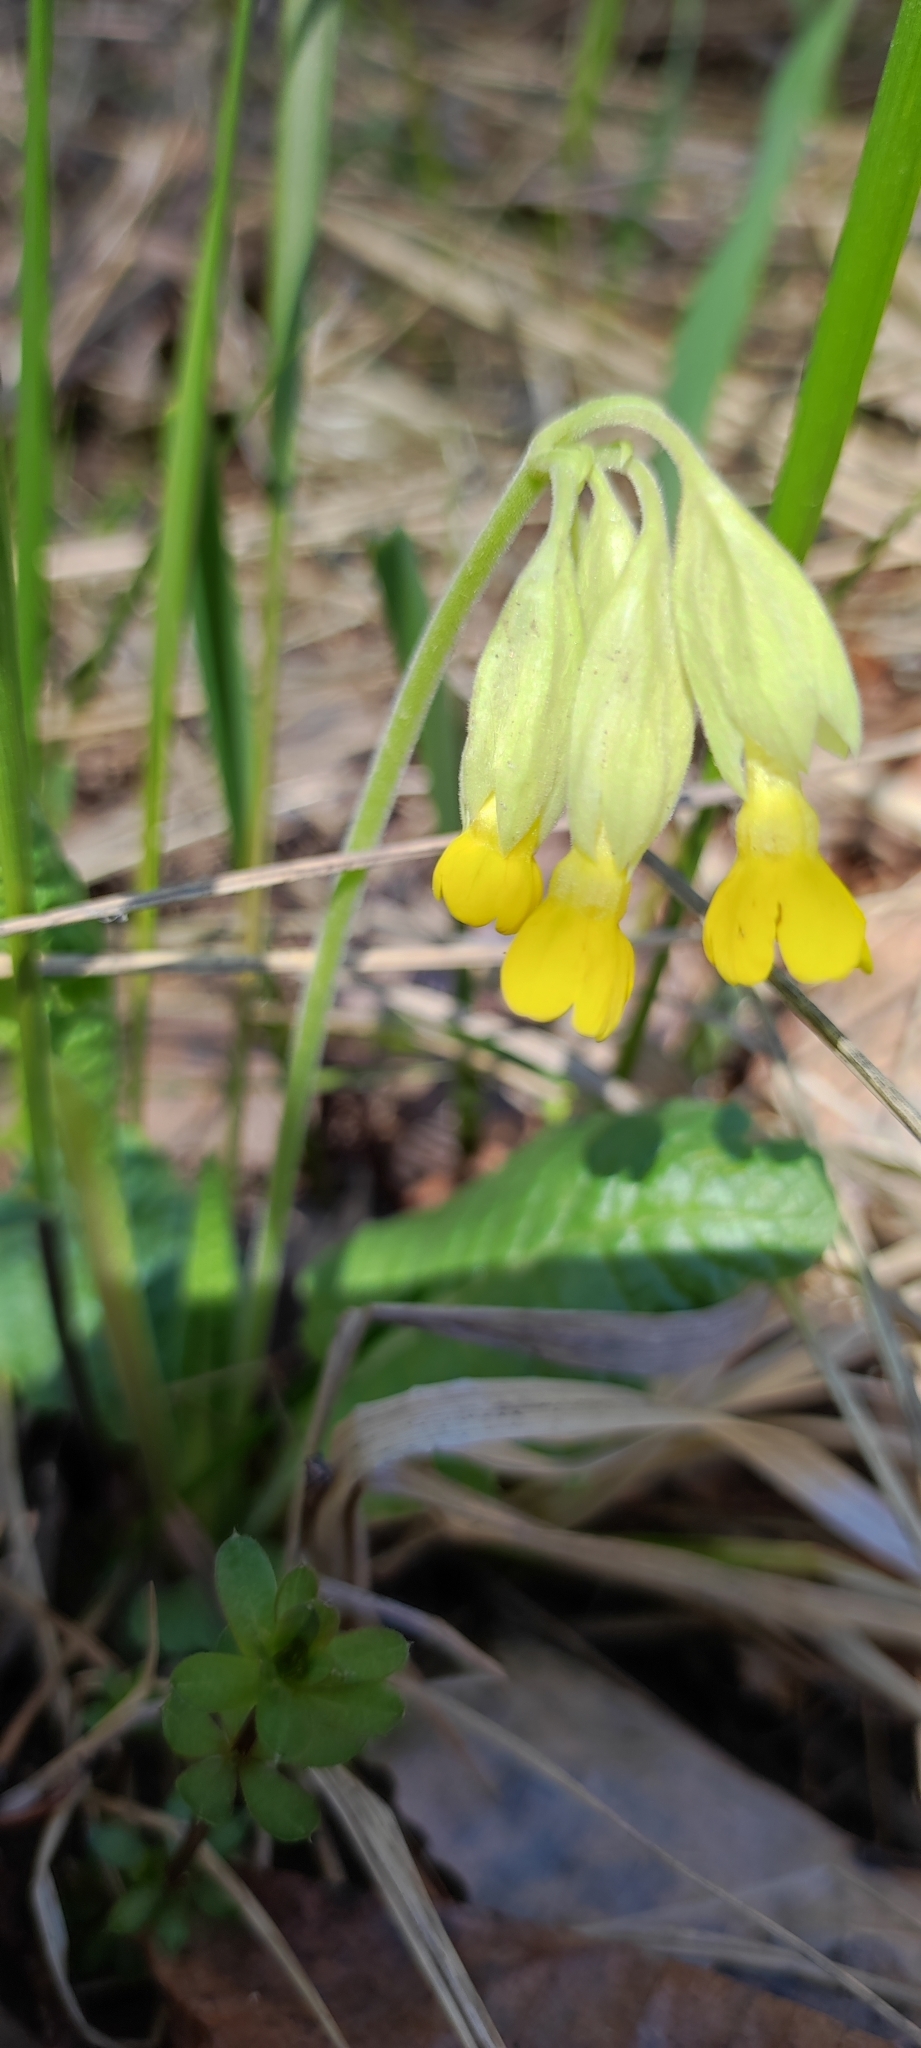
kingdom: Plantae
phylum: Tracheophyta
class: Magnoliopsida
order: Ericales
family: Primulaceae
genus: Primula
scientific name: Primula veris
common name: Cowslip
